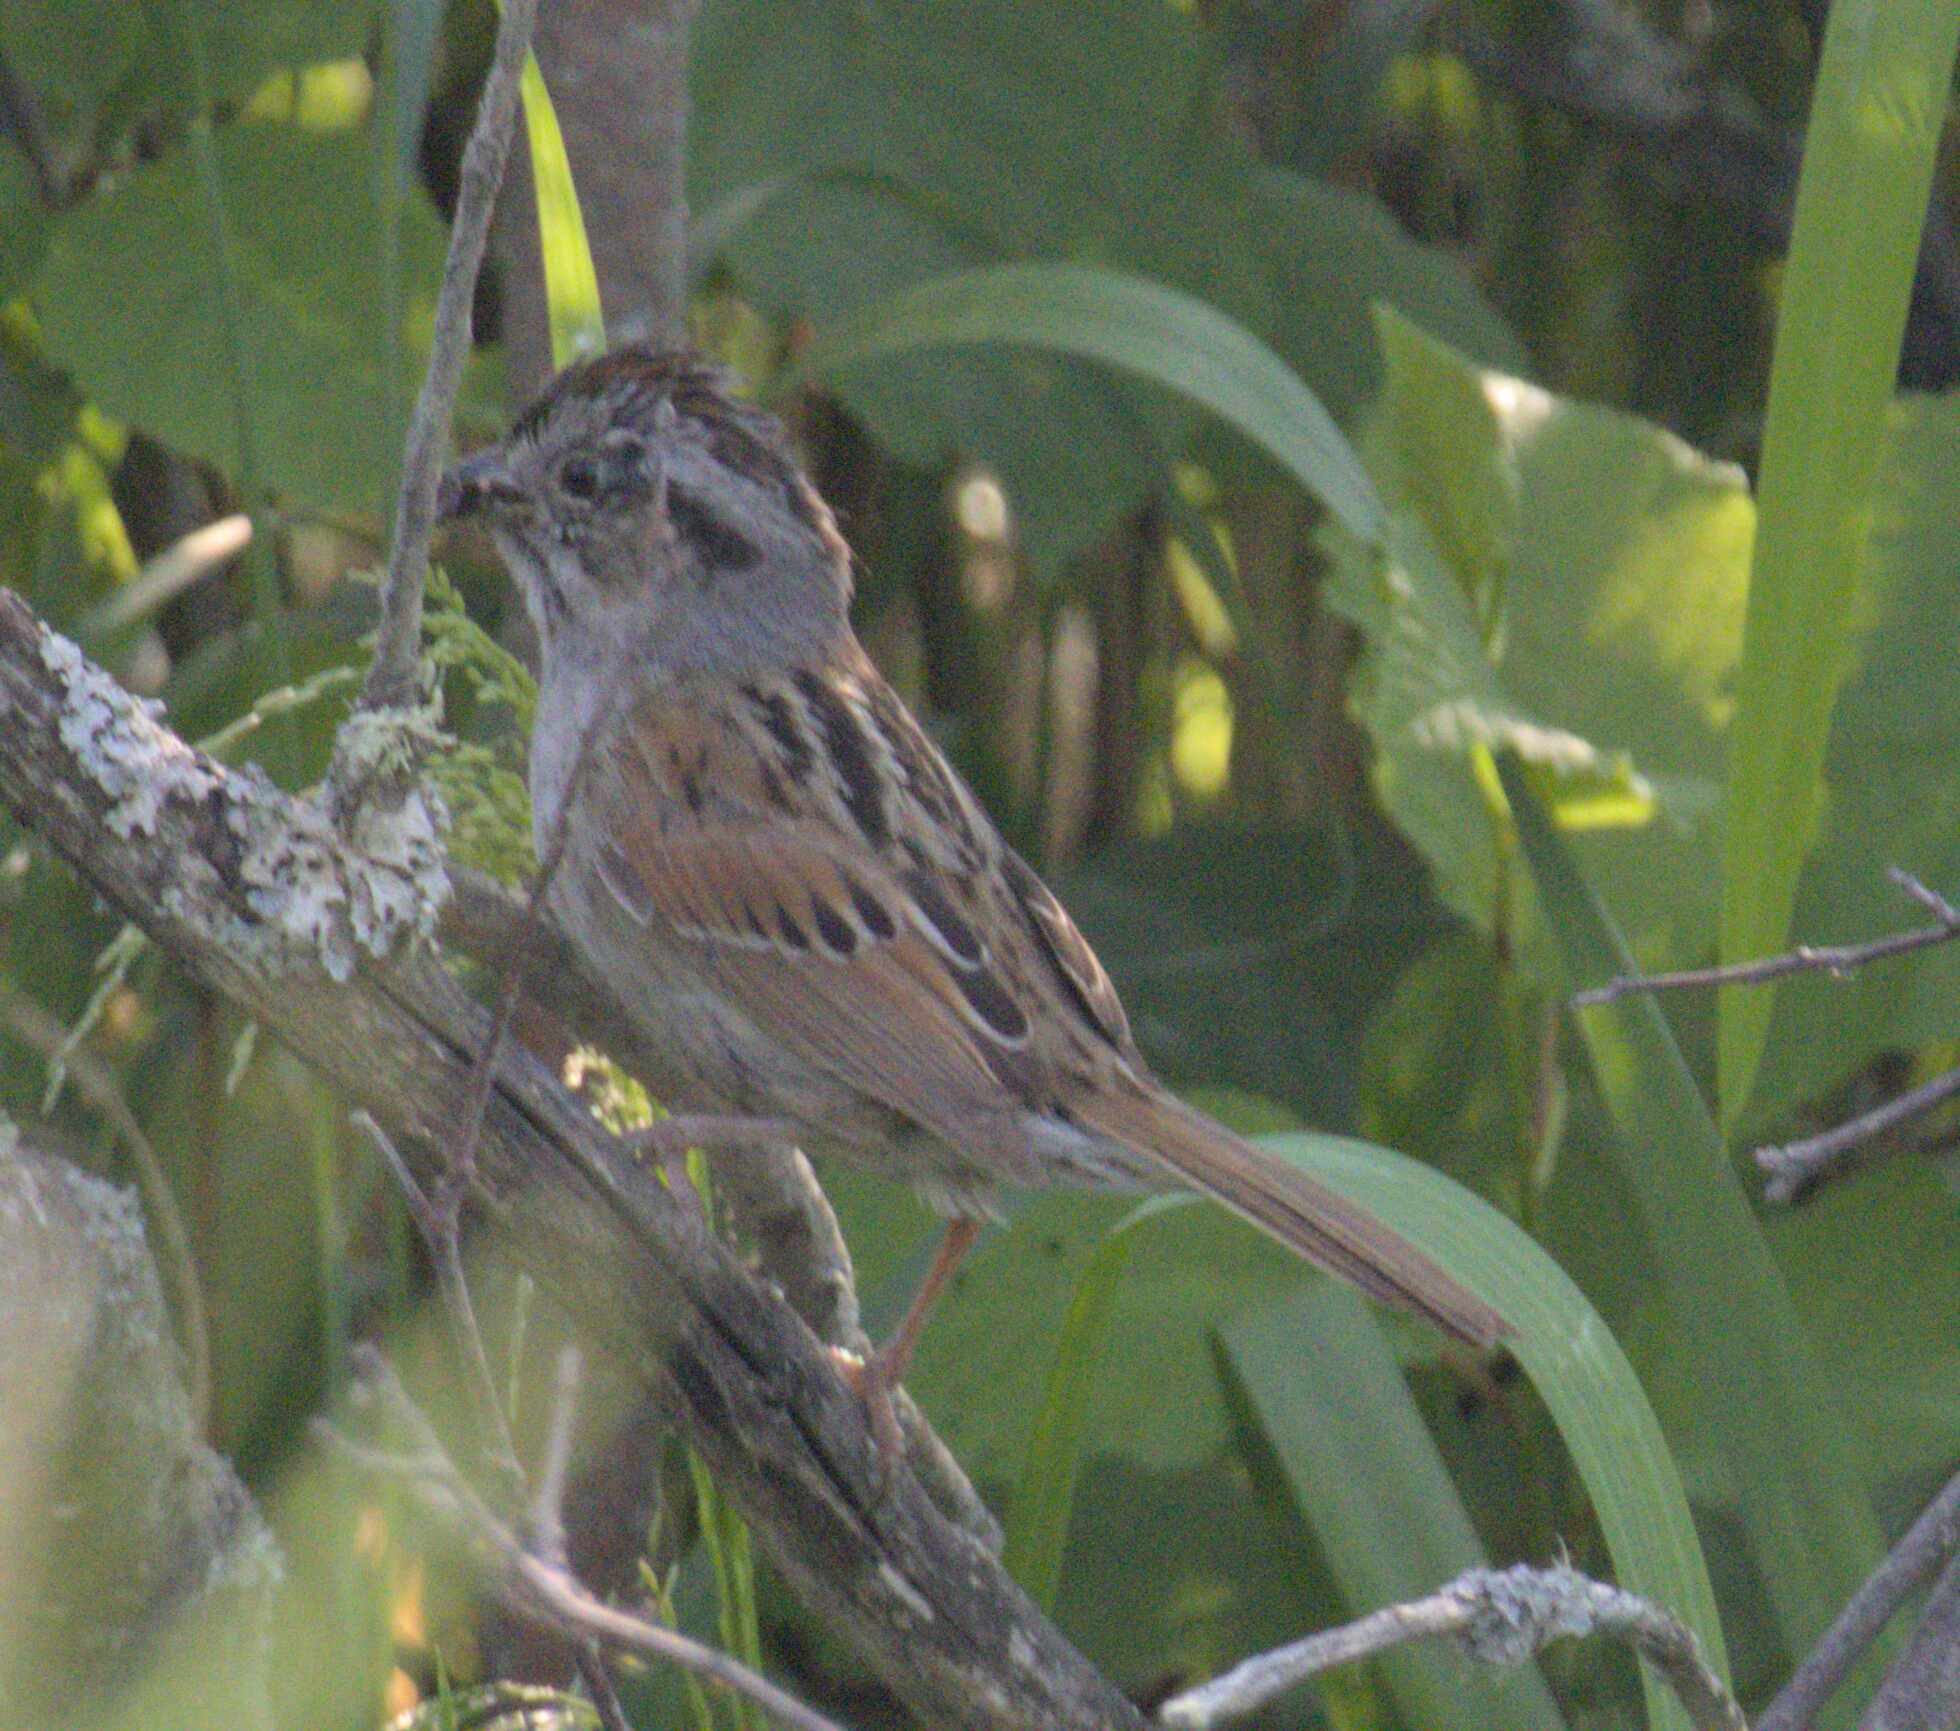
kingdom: Animalia
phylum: Chordata
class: Aves
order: Passeriformes
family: Passerellidae
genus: Melospiza
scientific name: Melospiza georgiana
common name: Swamp sparrow
